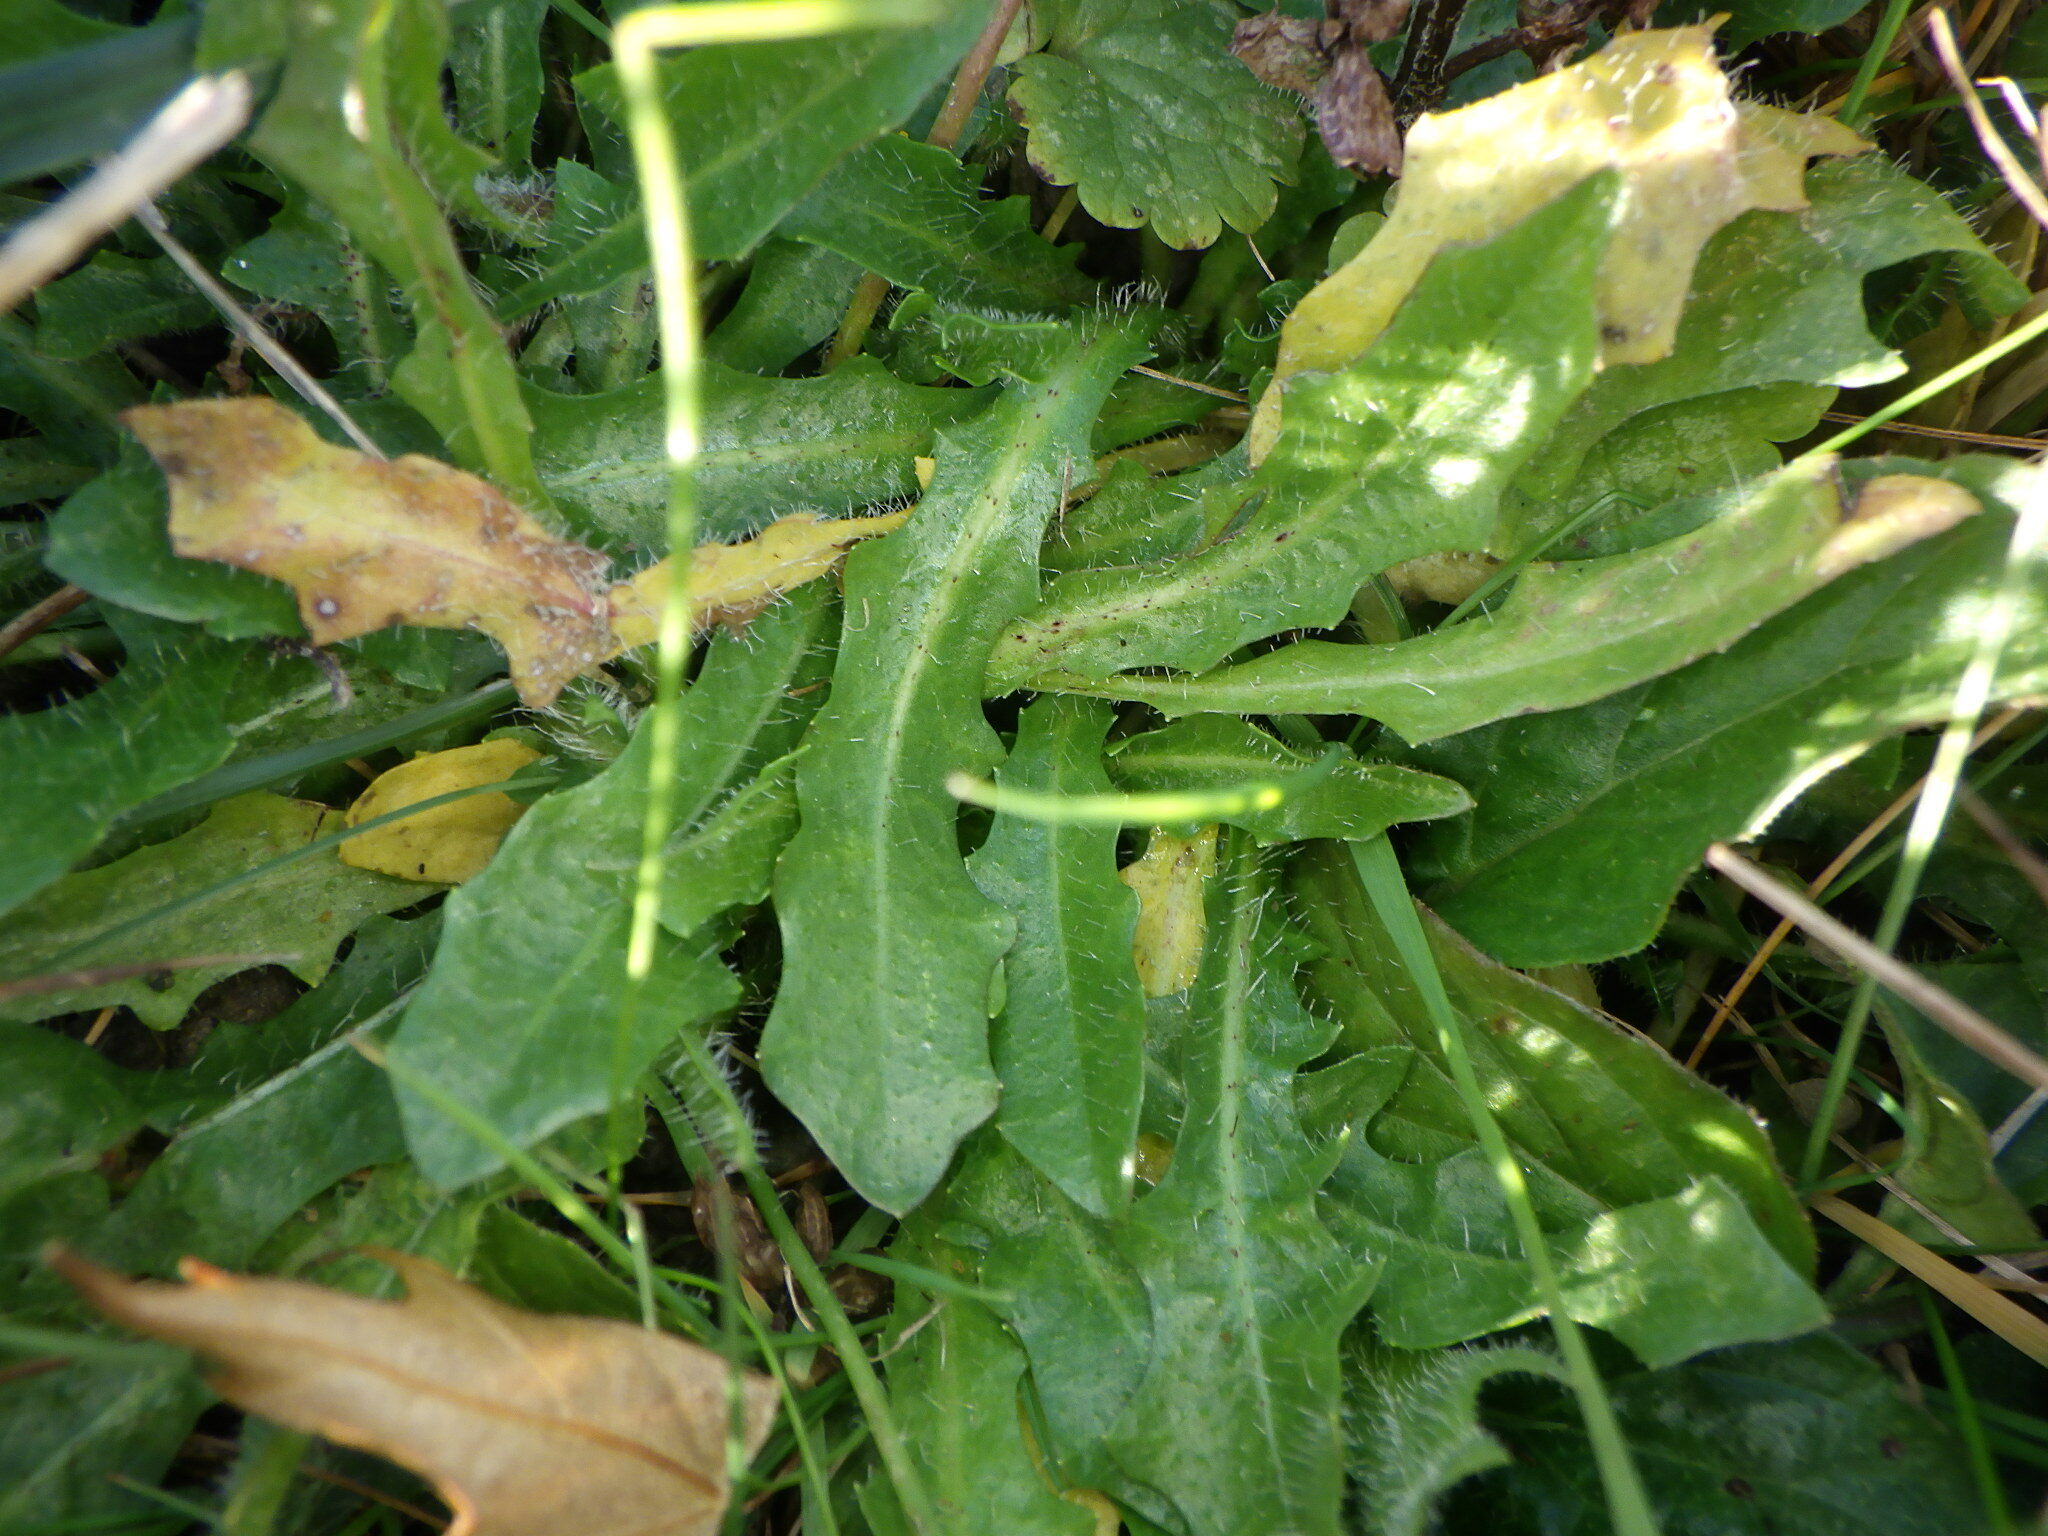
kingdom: Plantae
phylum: Tracheophyta
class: Magnoliopsida
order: Asterales
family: Asteraceae
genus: Hypochaeris
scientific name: Hypochaeris radicata
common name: Flatweed
